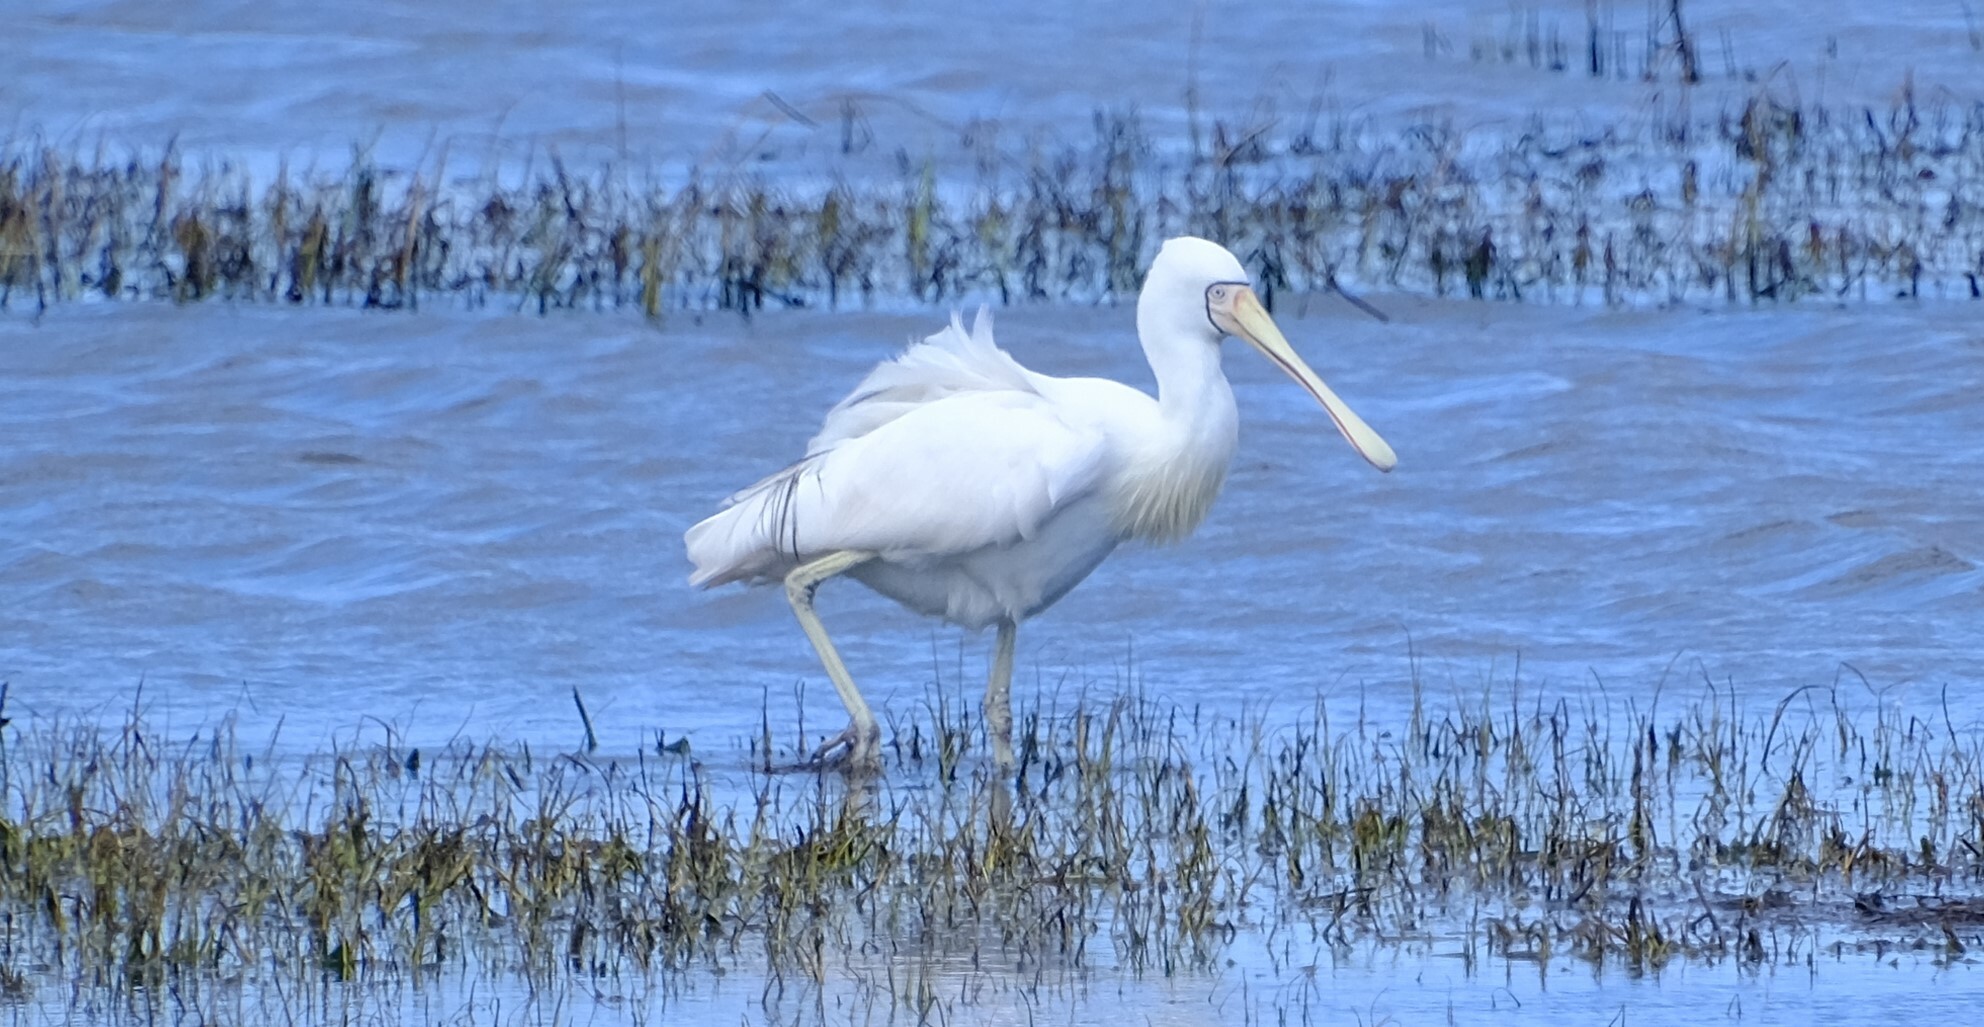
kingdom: Animalia
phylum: Chordata
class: Aves
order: Pelecaniformes
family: Threskiornithidae
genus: Platalea
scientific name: Platalea flavipes
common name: Yellow-billed spoonbill
